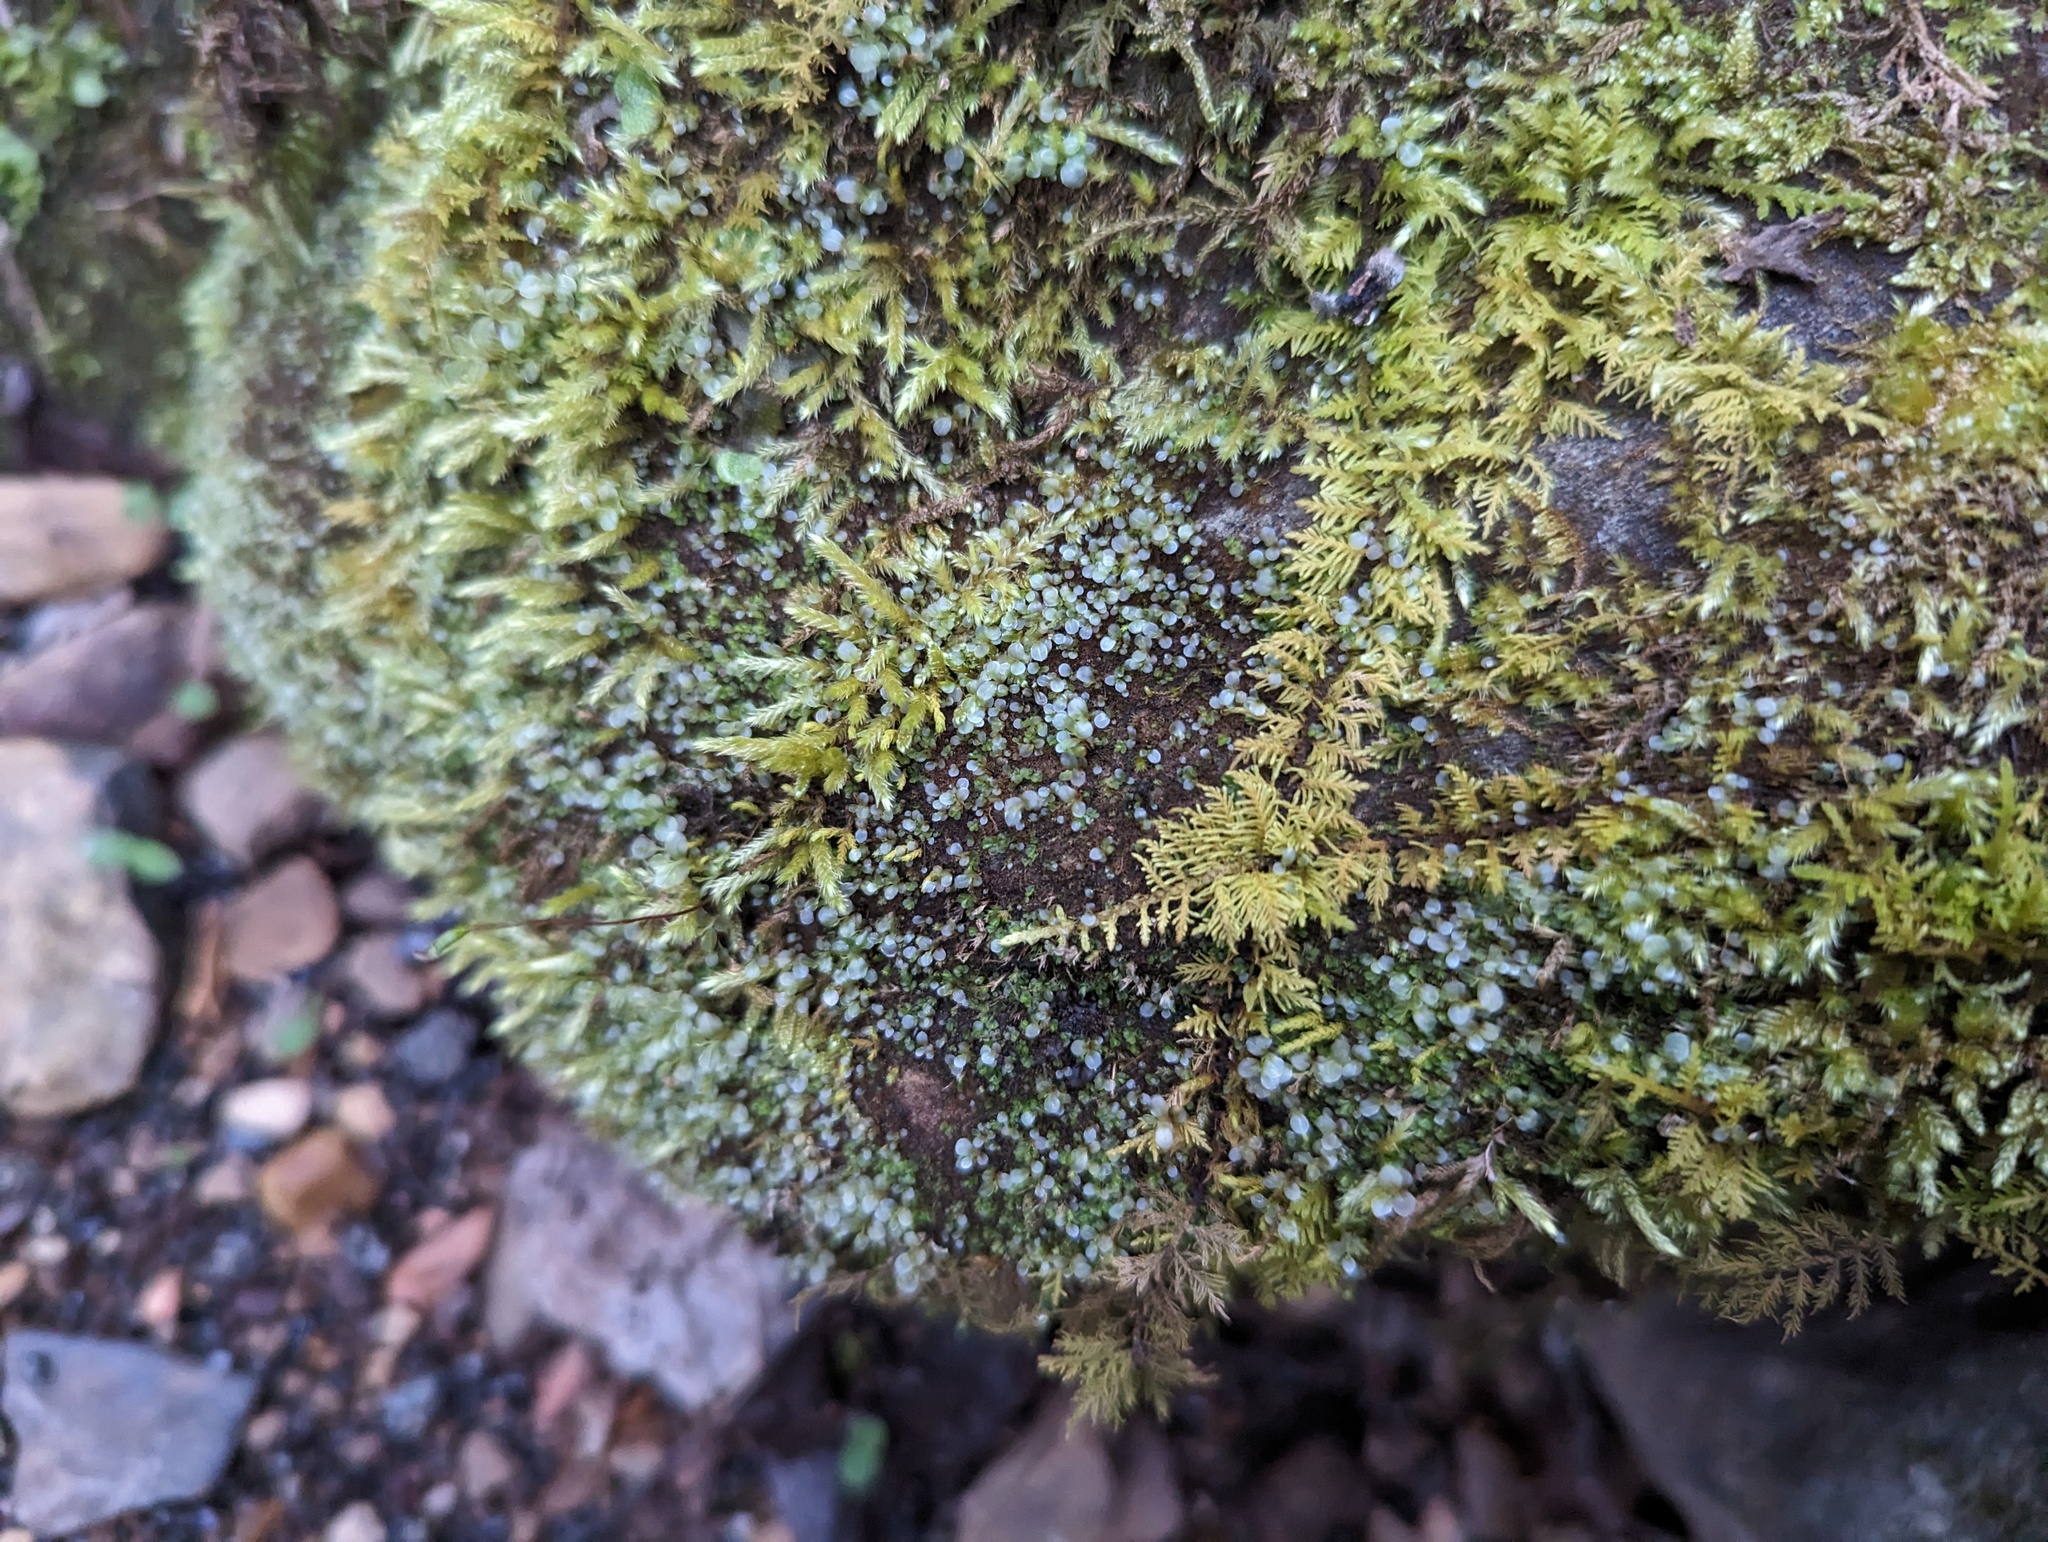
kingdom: Plantae
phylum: Bryophyta
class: Bryopsida
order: Bryales
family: Mniaceae
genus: Rhizomnium
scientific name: Rhizomnium punctatum
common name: Dotted leafy moss
